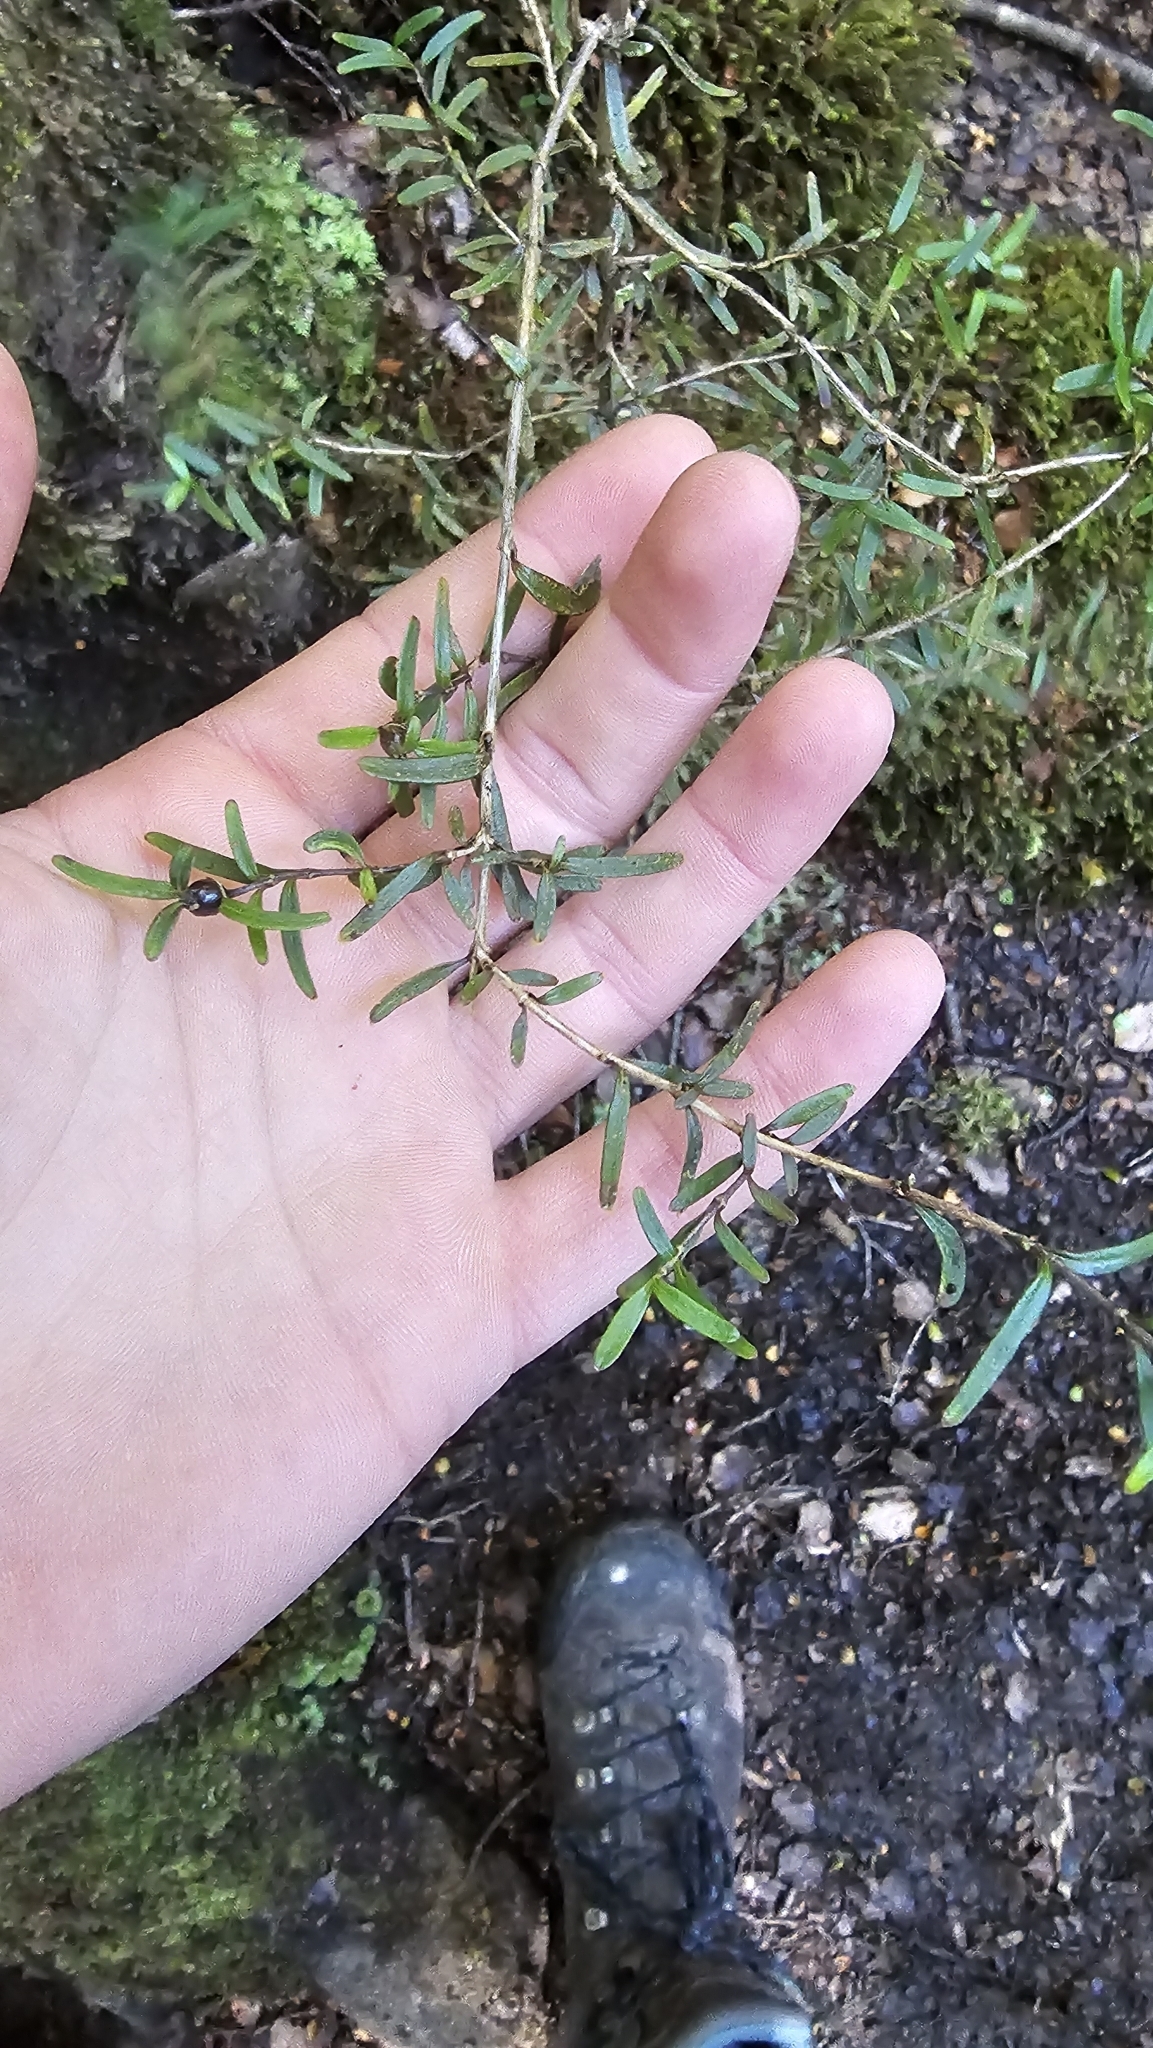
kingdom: Plantae
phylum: Tracheophyta
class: Magnoliopsida
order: Gentianales
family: Rubiaceae
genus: Coprosma
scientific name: Coprosma linariifolia
